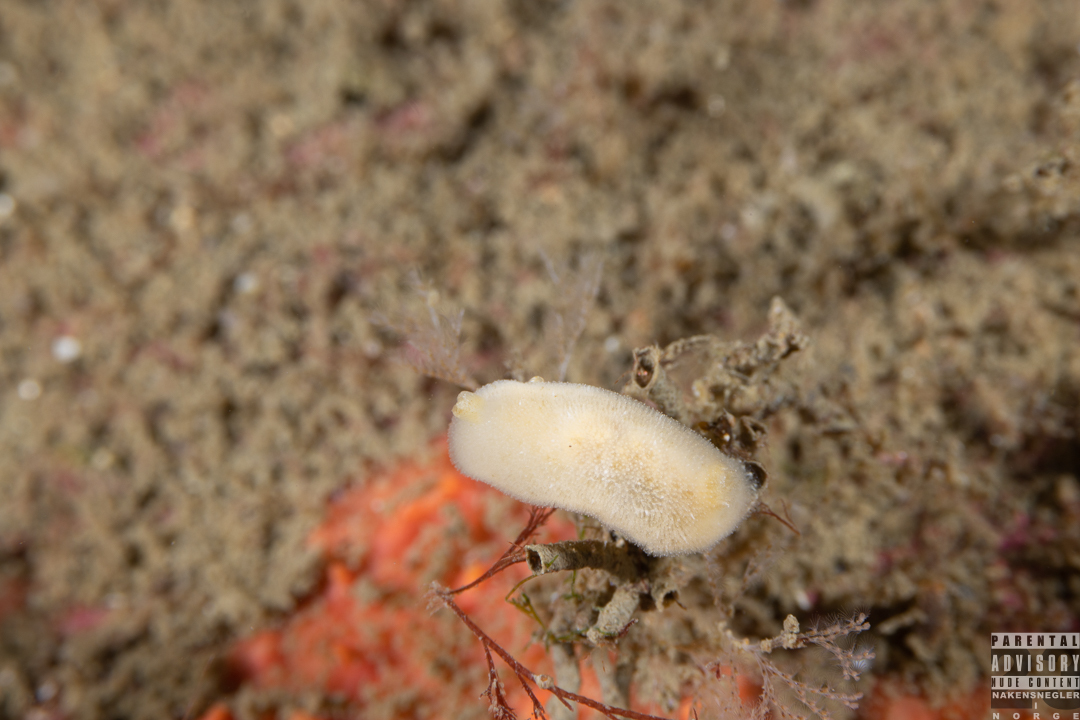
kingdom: Animalia
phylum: Mollusca
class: Gastropoda
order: Nudibranchia
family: Discodorididae
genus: Jorunna
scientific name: Jorunna tomentosa
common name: Grey sea slug
